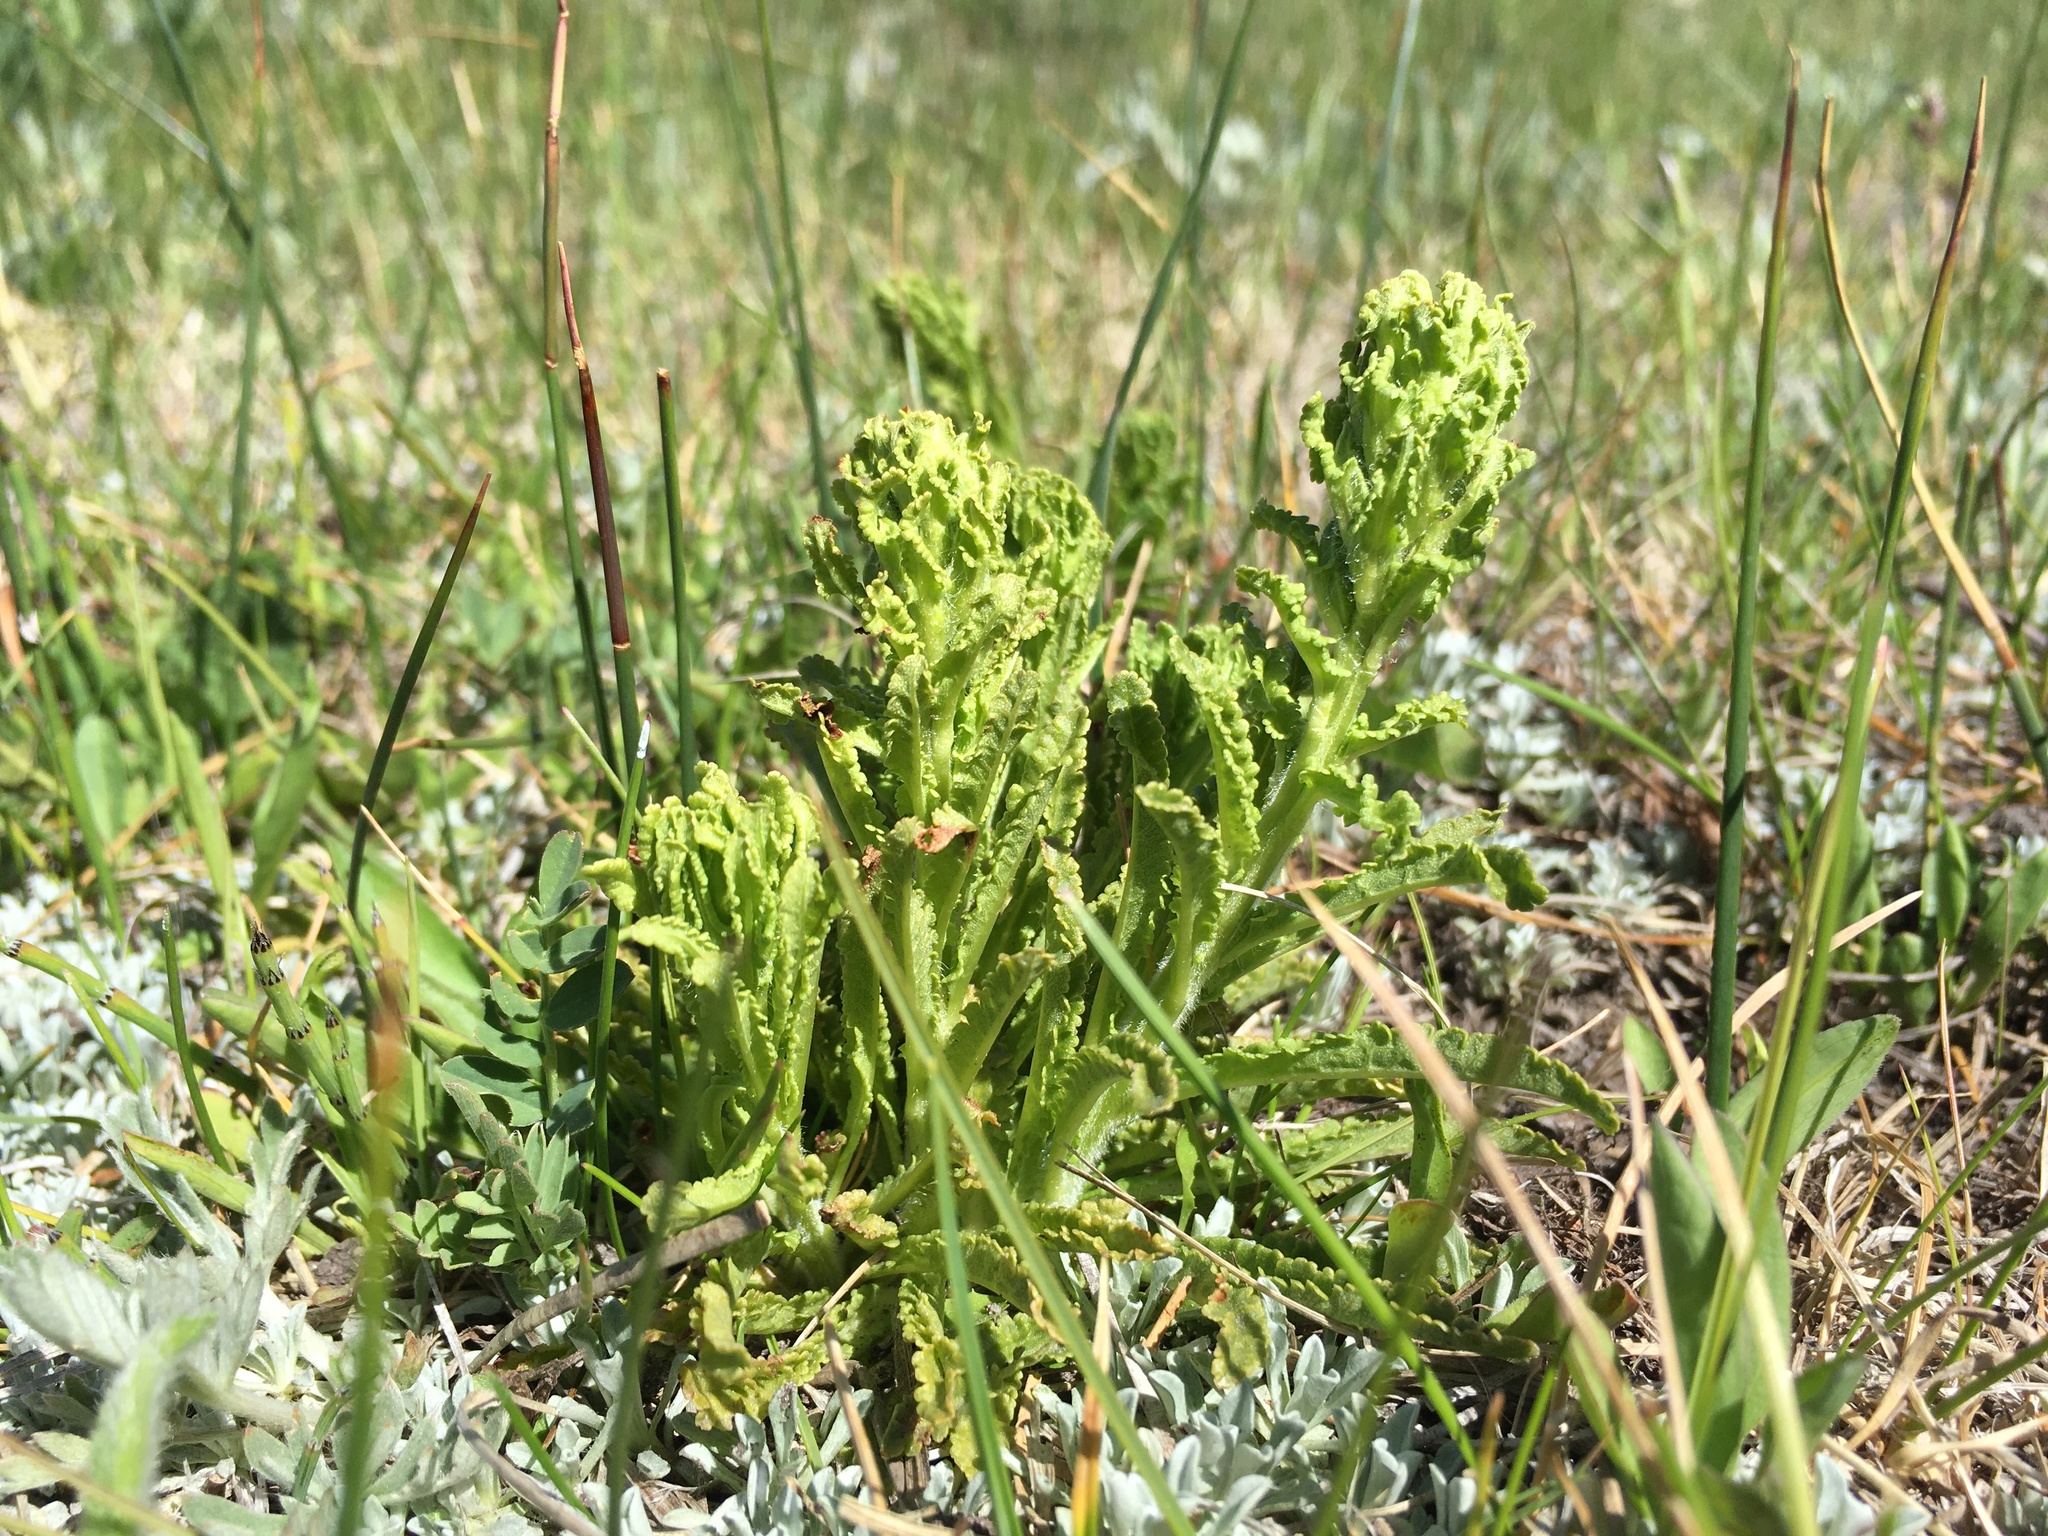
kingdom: Plantae
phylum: Tracheophyta
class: Magnoliopsida
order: Lamiales
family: Orobanchaceae
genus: Pedicularis
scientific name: Pedicularis crenulata
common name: Meadow lousewort
